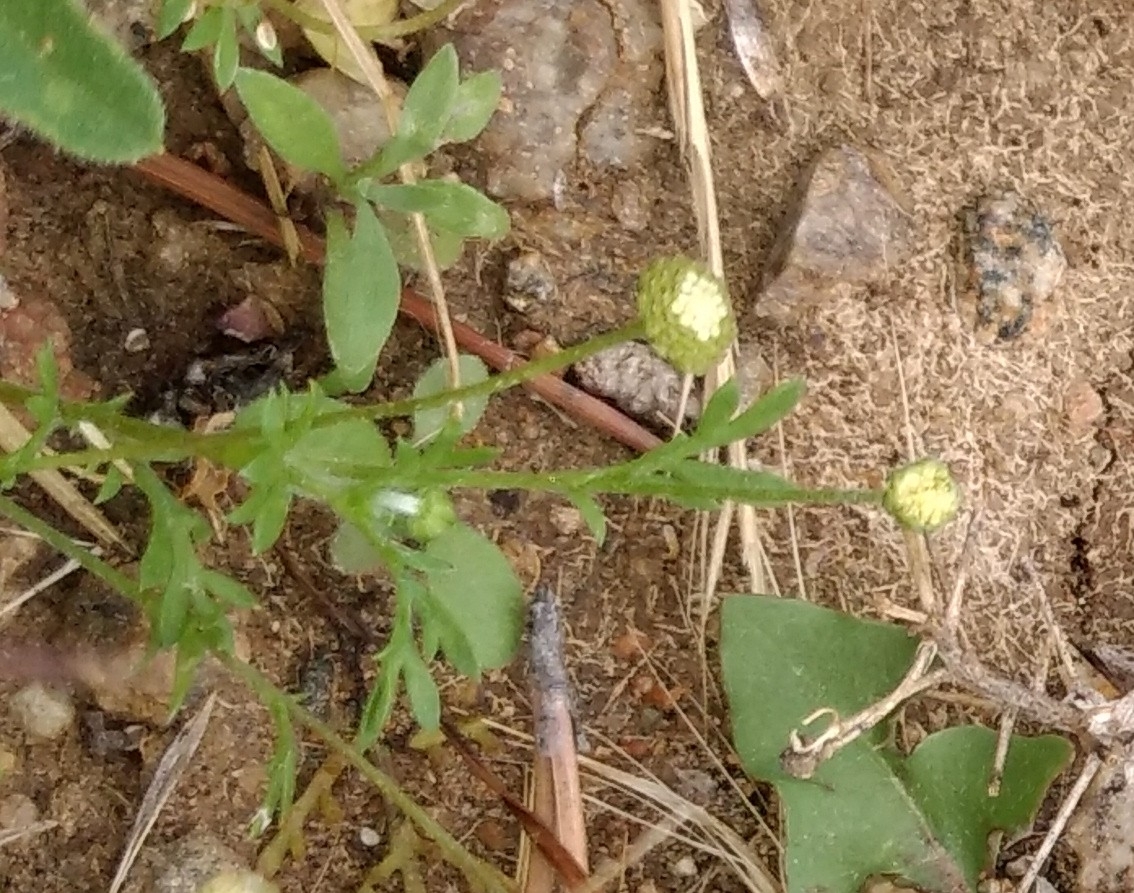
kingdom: Plantae
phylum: Tracheophyta
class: Magnoliopsida
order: Asterales
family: Asteraceae
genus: Cotula
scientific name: Cotula australis
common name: Australian waterbuttons
